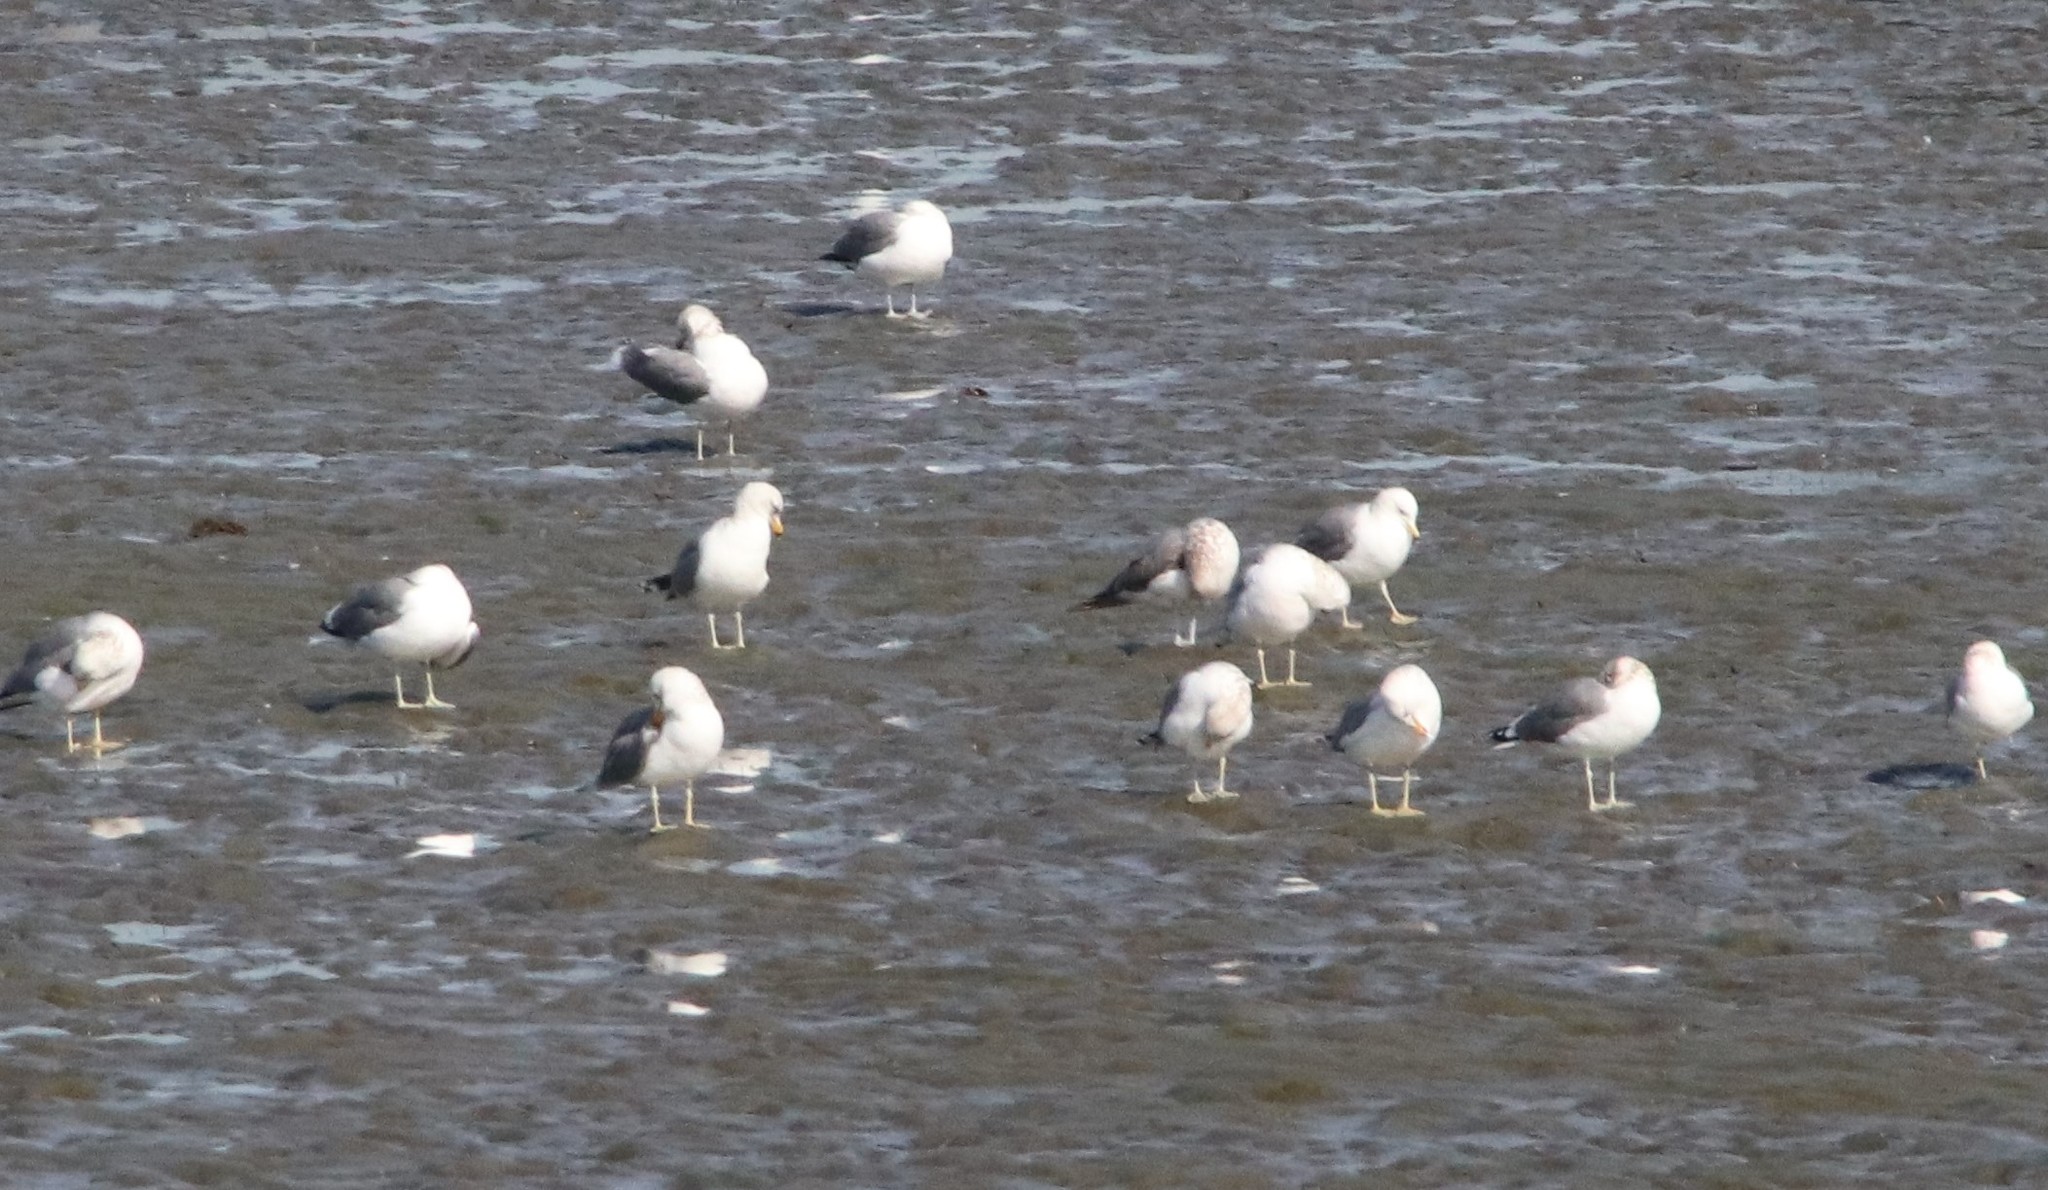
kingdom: Animalia
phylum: Chordata
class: Aves
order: Charadriiformes
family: Laridae
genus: Larus
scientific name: Larus californicus
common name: California gull
